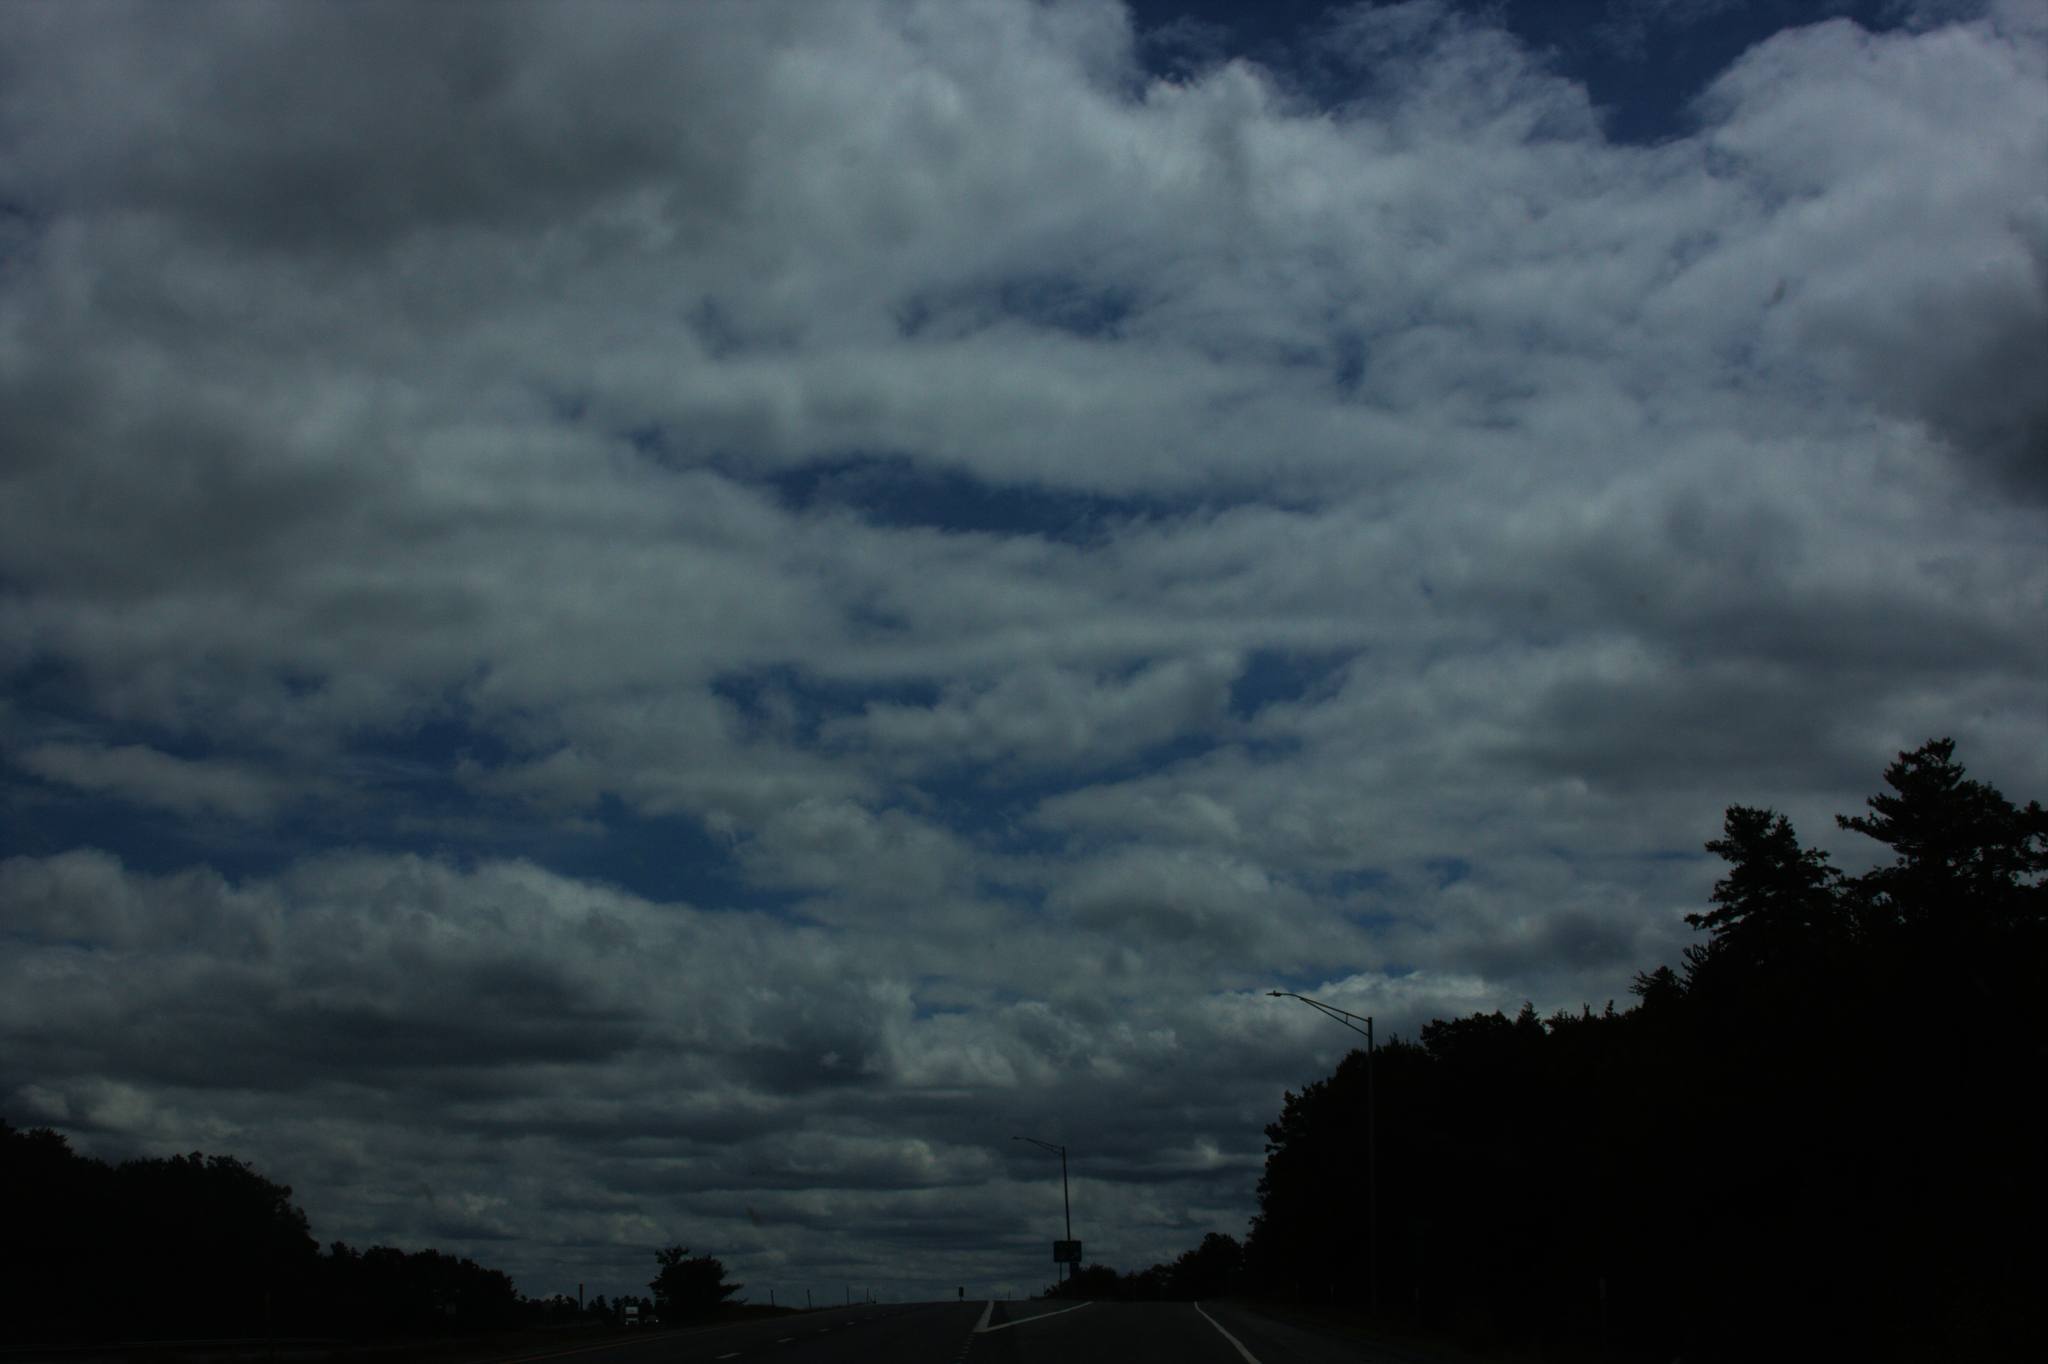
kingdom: Plantae
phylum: Tracheophyta
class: Pinopsida
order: Pinales
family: Pinaceae
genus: Pinus
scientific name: Pinus strobus
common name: Weymouth pine
